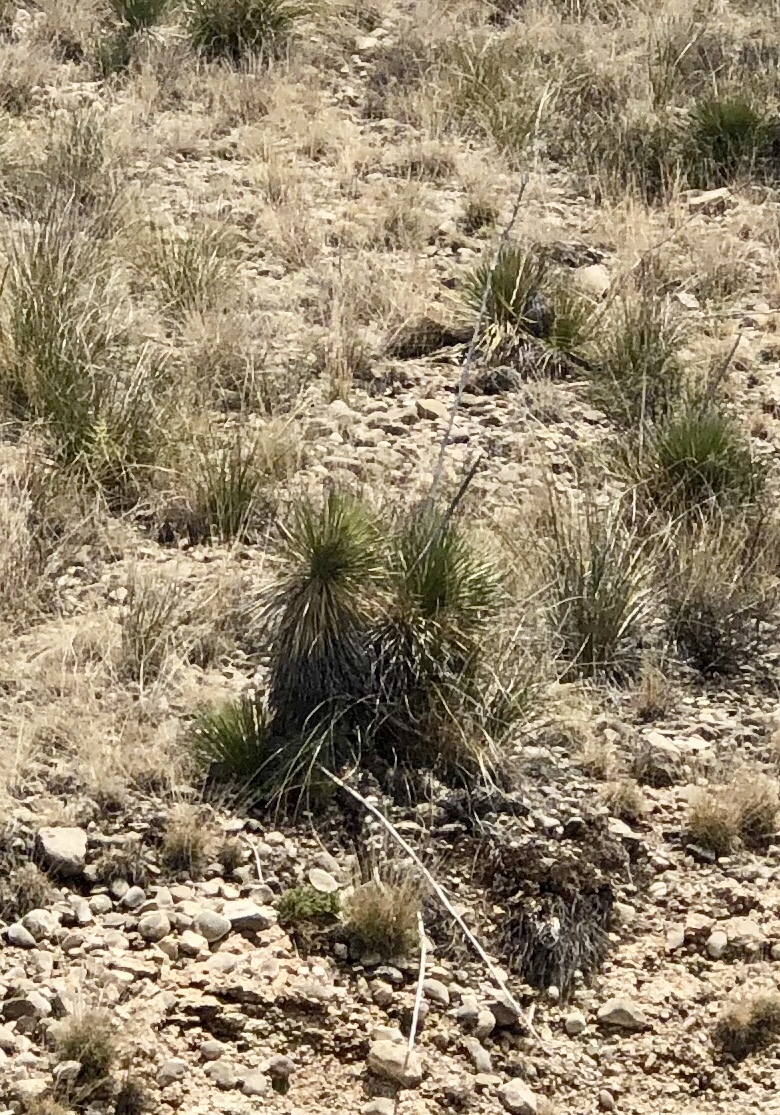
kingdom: Plantae
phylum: Tracheophyta
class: Liliopsida
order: Asparagales
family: Asparagaceae
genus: Yucca
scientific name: Yucca elata
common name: Palmella
